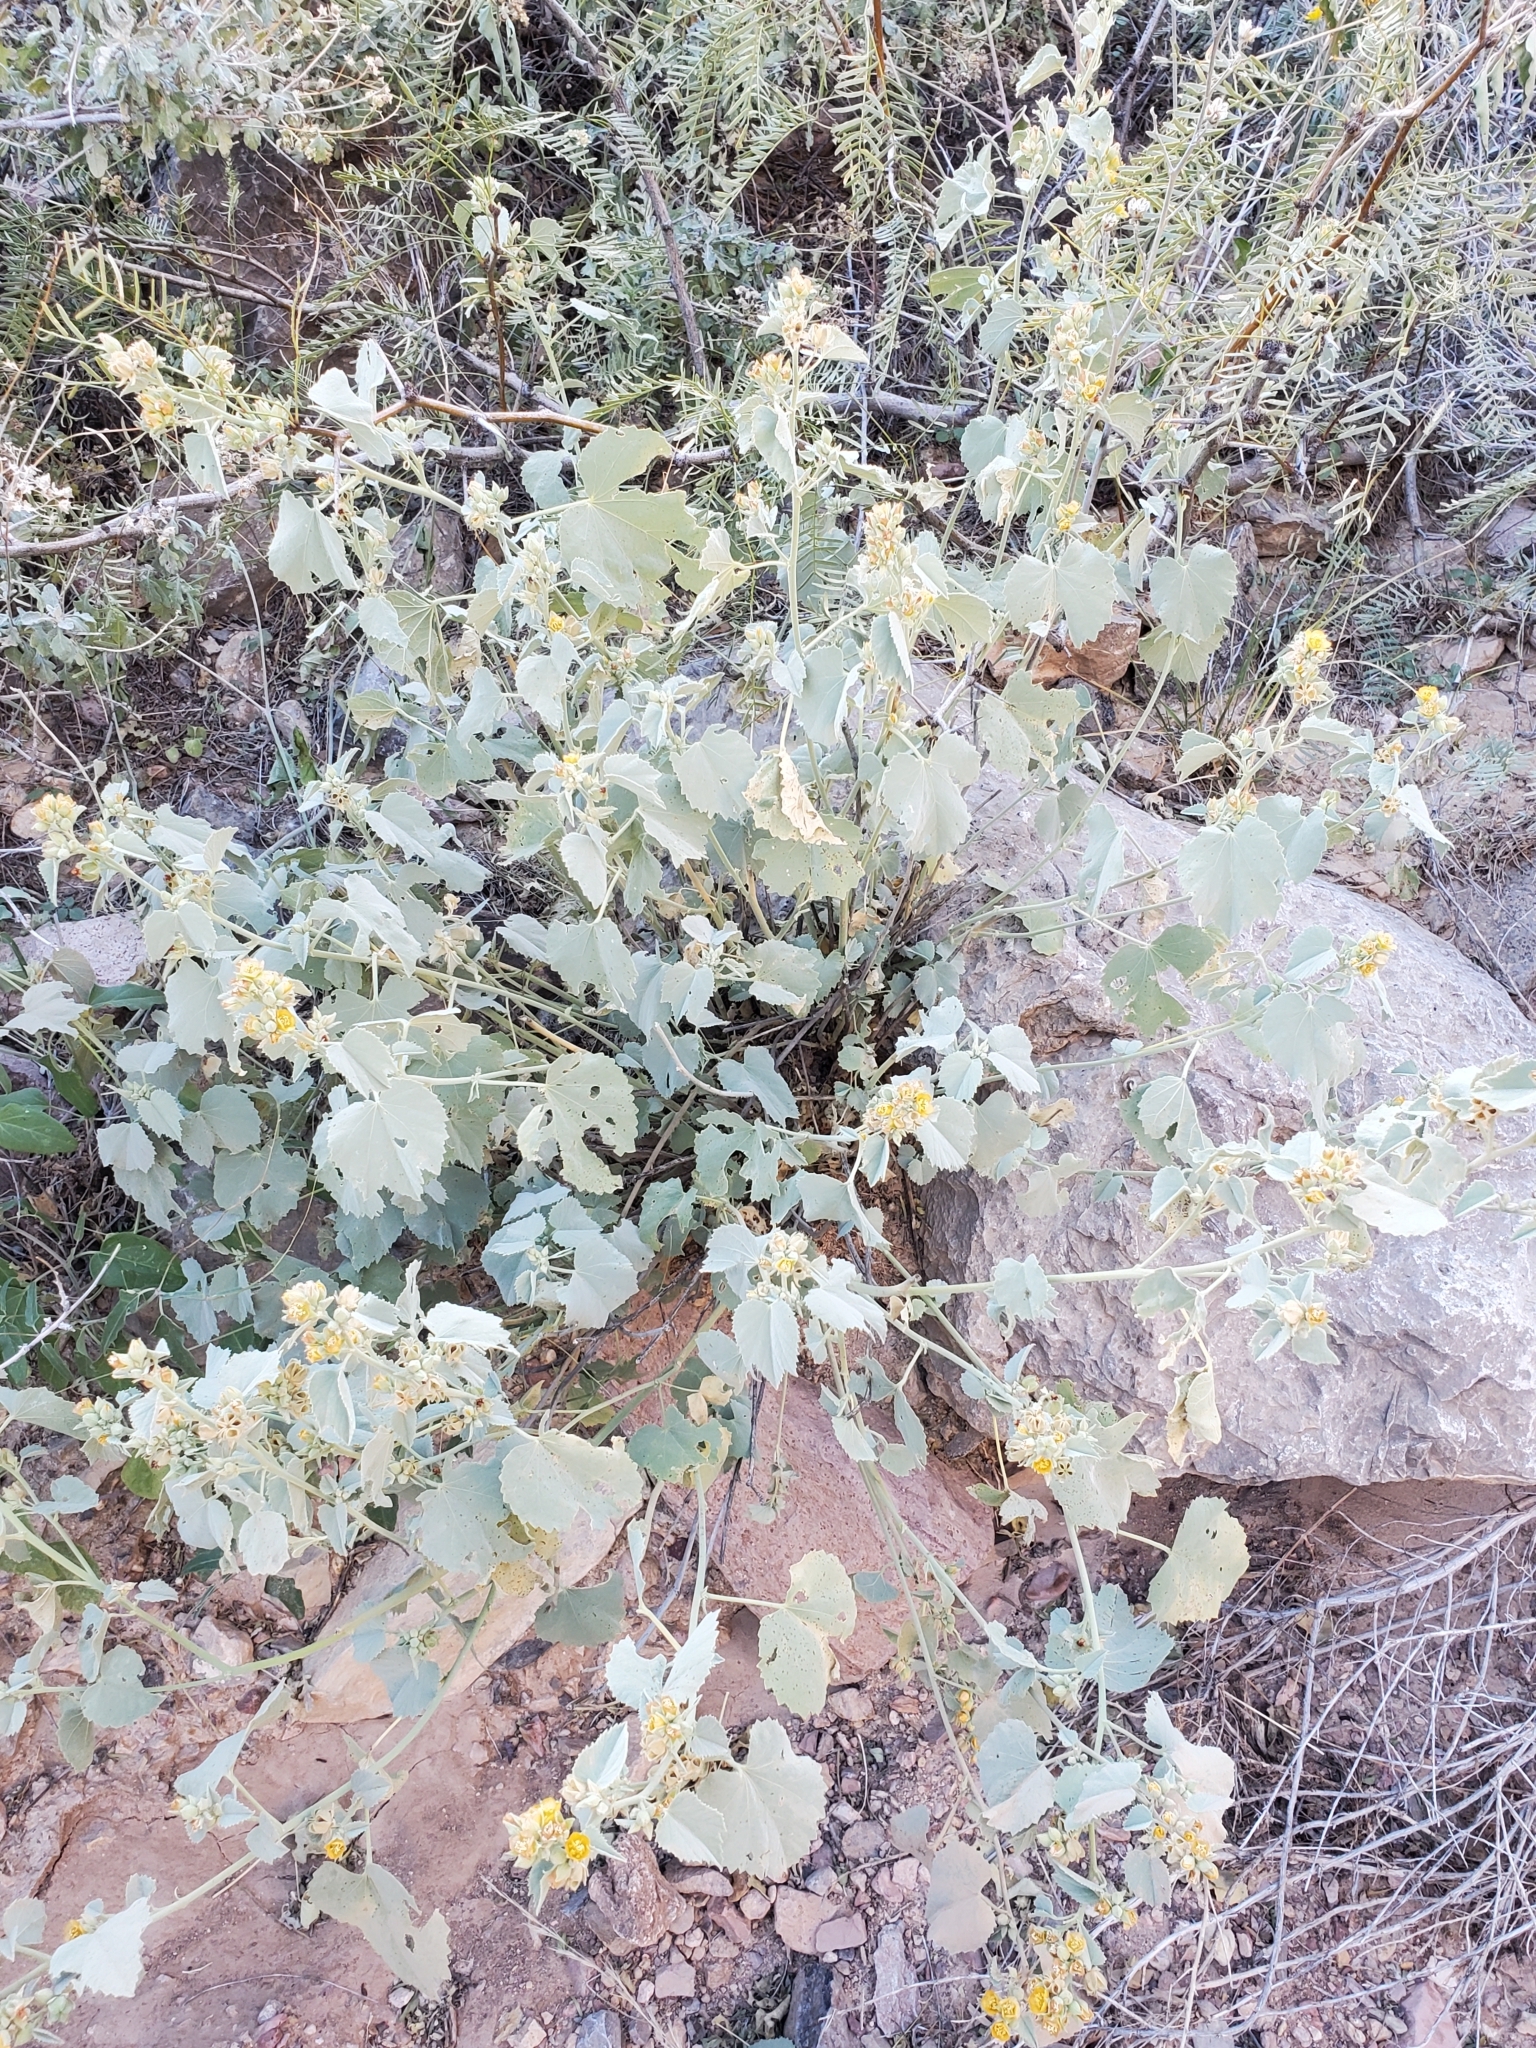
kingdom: Plantae
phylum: Tracheophyta
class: Magnoliopsida
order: Malvales
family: Malvaceae
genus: Abutilon
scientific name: Abutilon malacum
